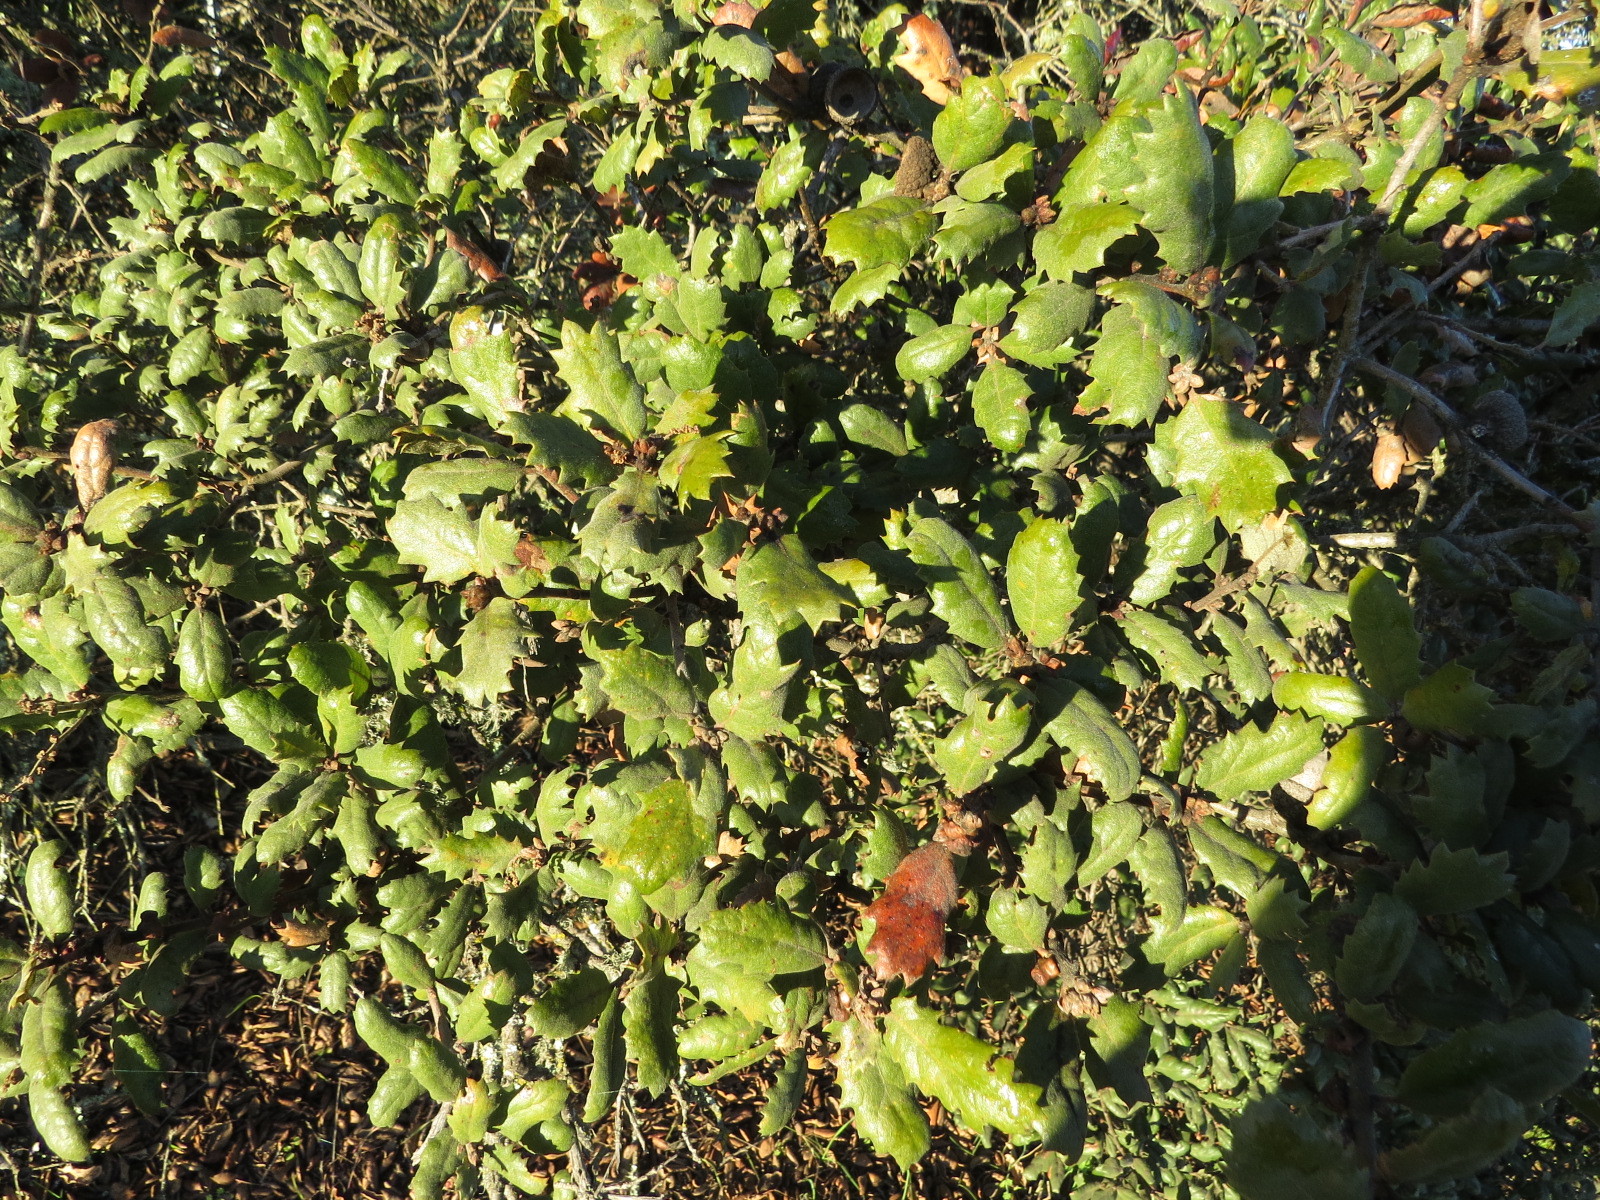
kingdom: Plantae
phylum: Tracheophyta
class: Magnoliopsida
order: Fagales
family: Fagaceae
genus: Quercus
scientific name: Quercus durata
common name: Leather oak
